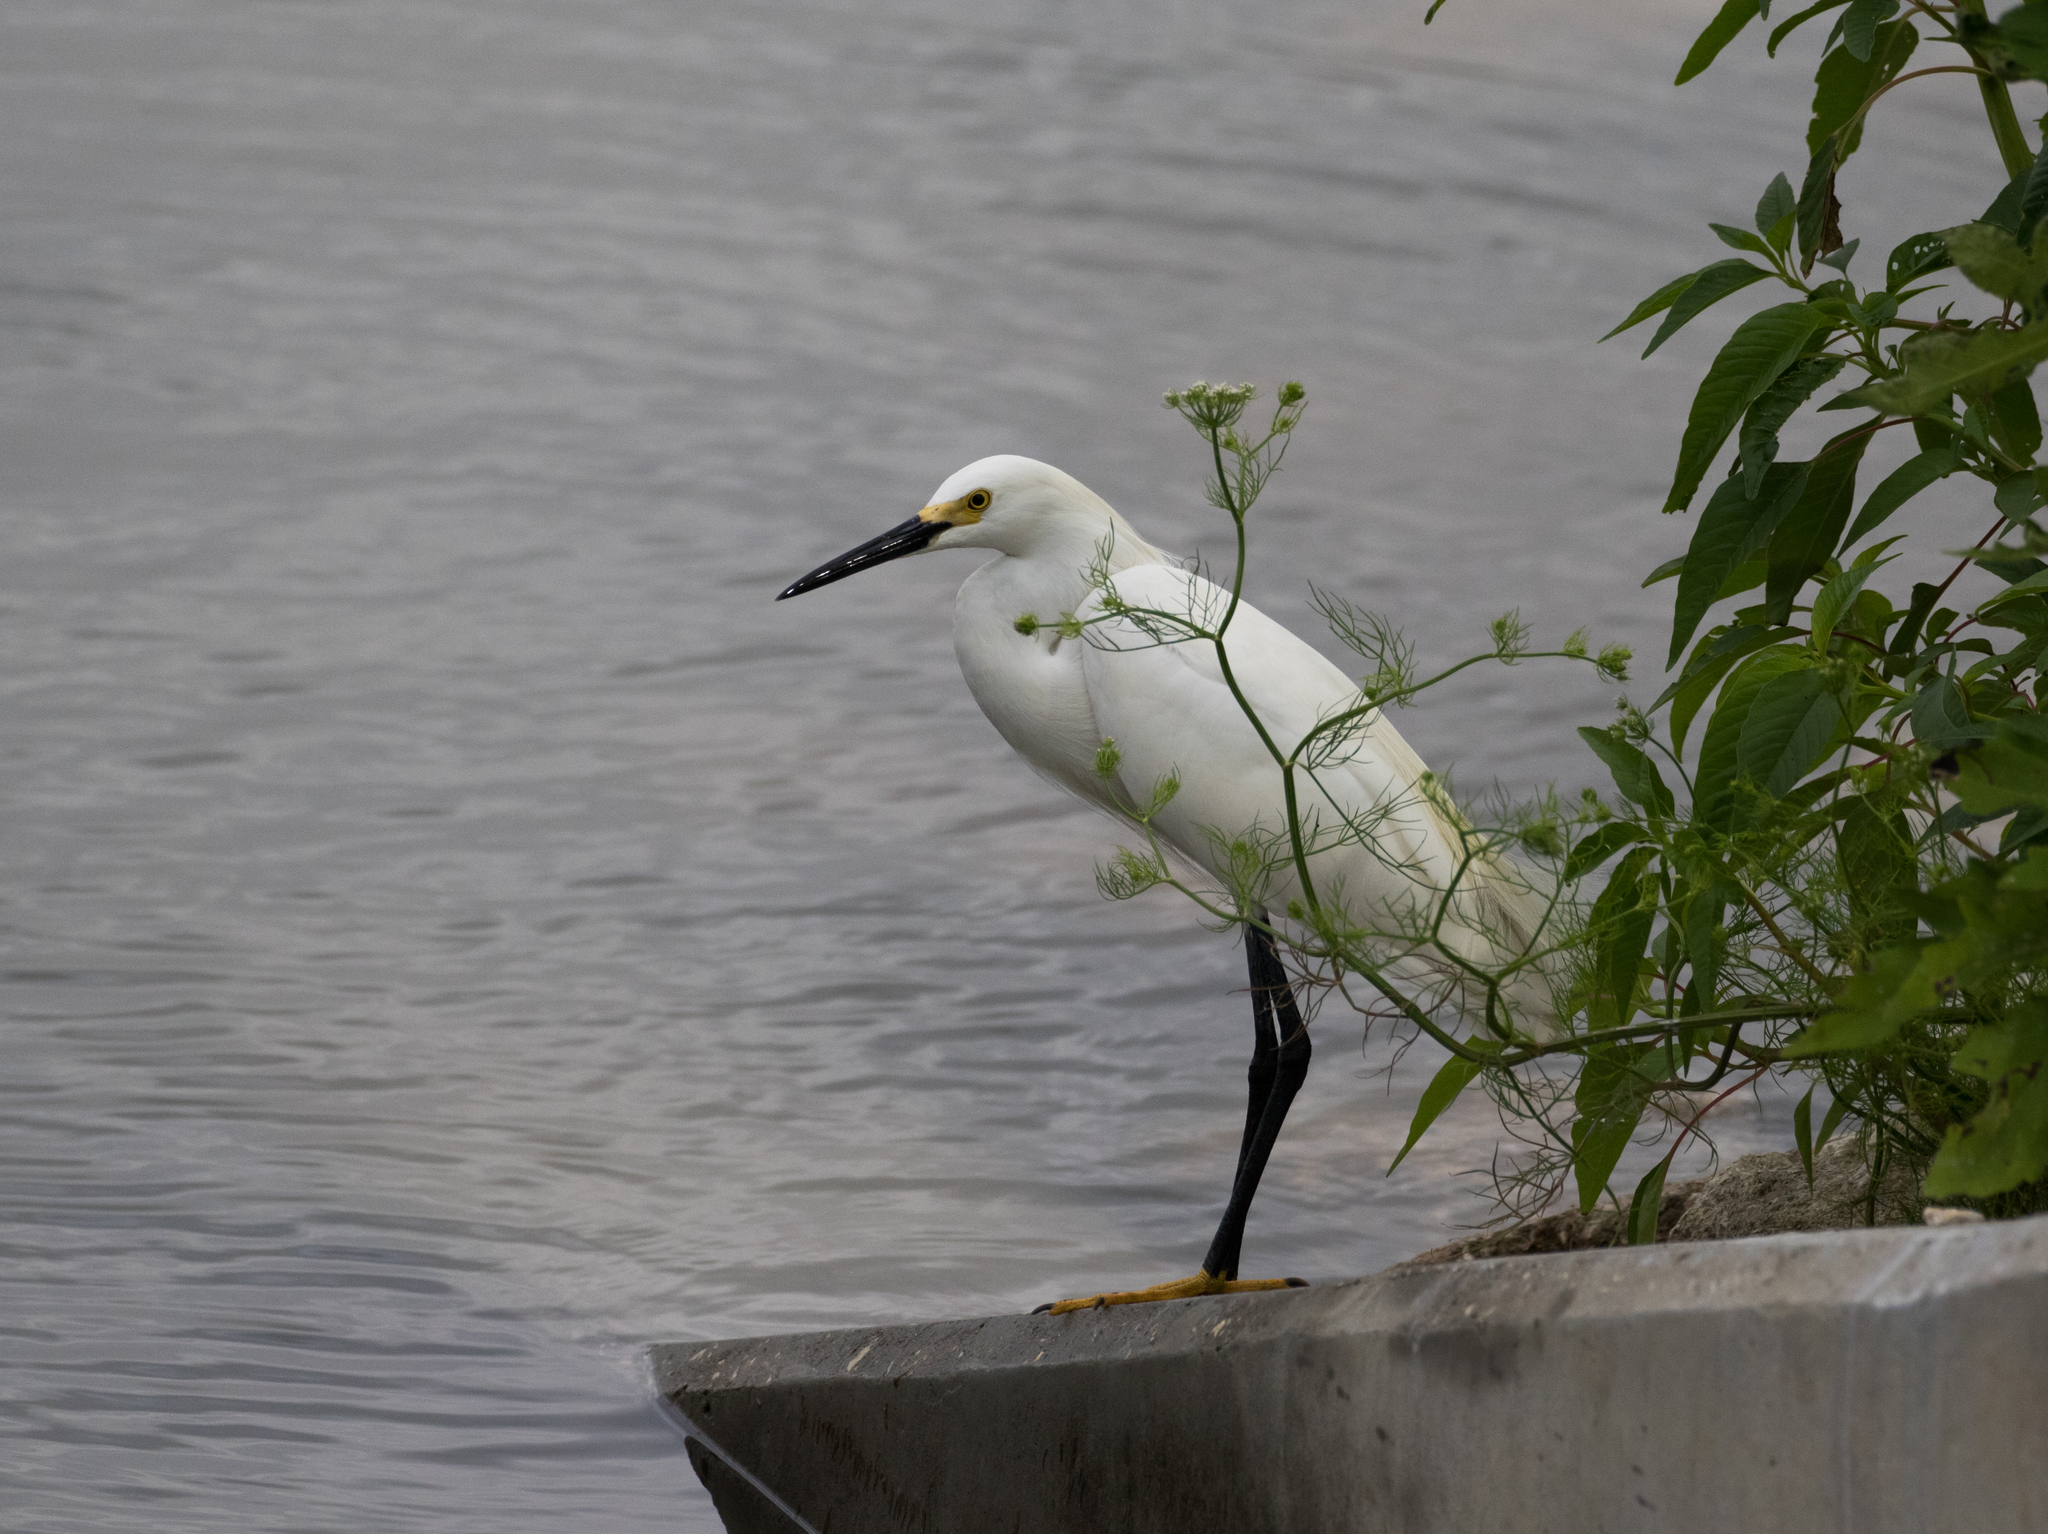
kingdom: Animalia
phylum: Chordata
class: Aves
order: Pelecaniformes
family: Ardeidae
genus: Egretta
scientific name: Egretta thula
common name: Snowy egret
